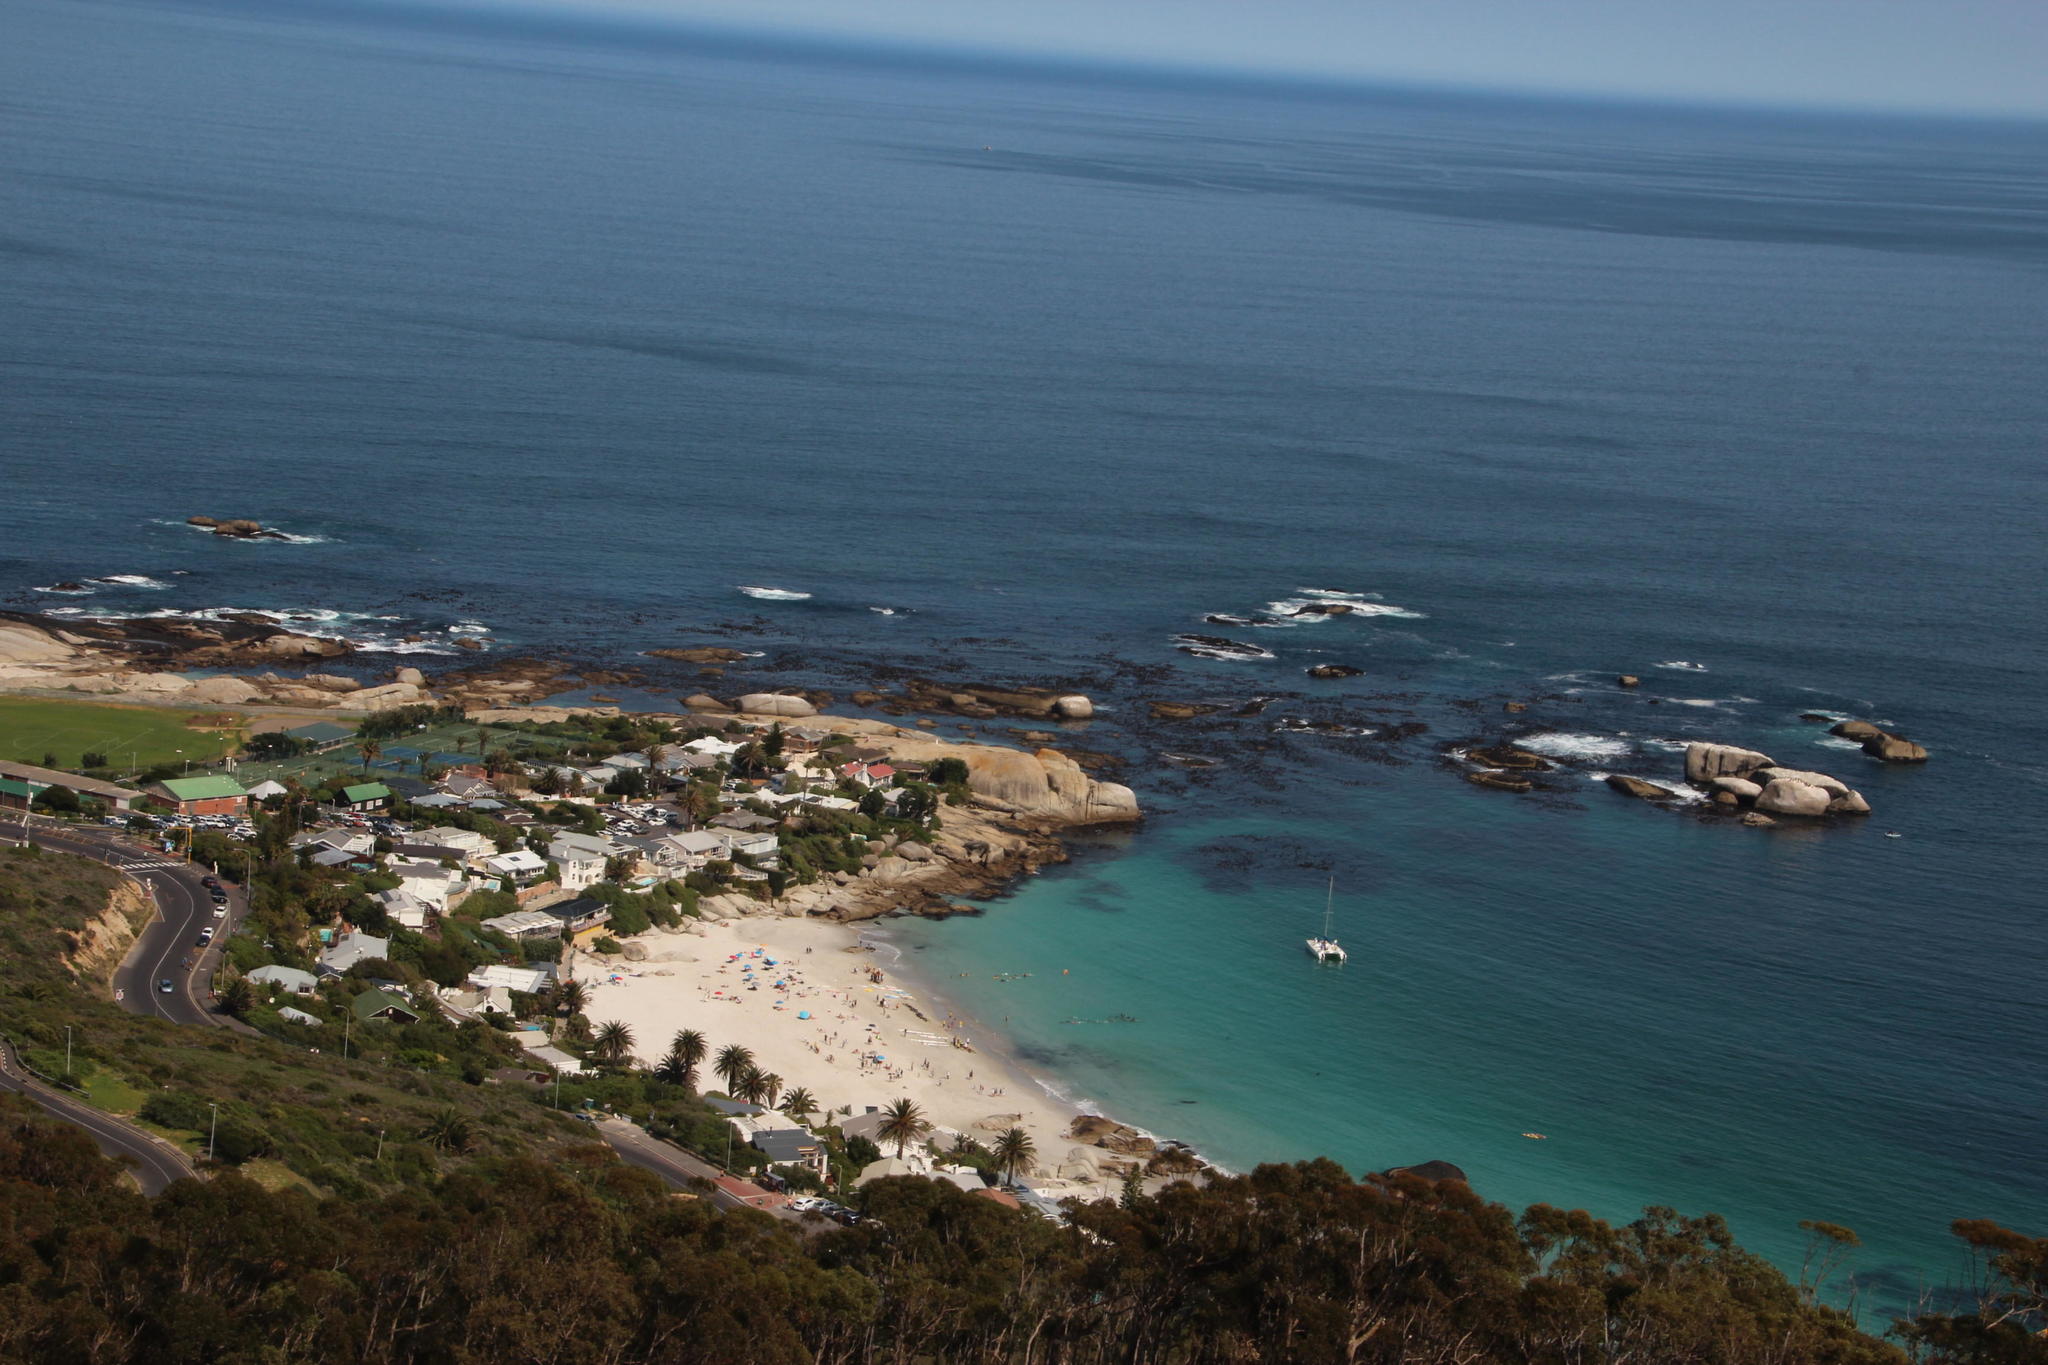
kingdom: Chromista
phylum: Ochrophyta
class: Phaeophyceae
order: Laminariales
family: Lessoniaceae
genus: Ecklonia
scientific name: Ecklonia
